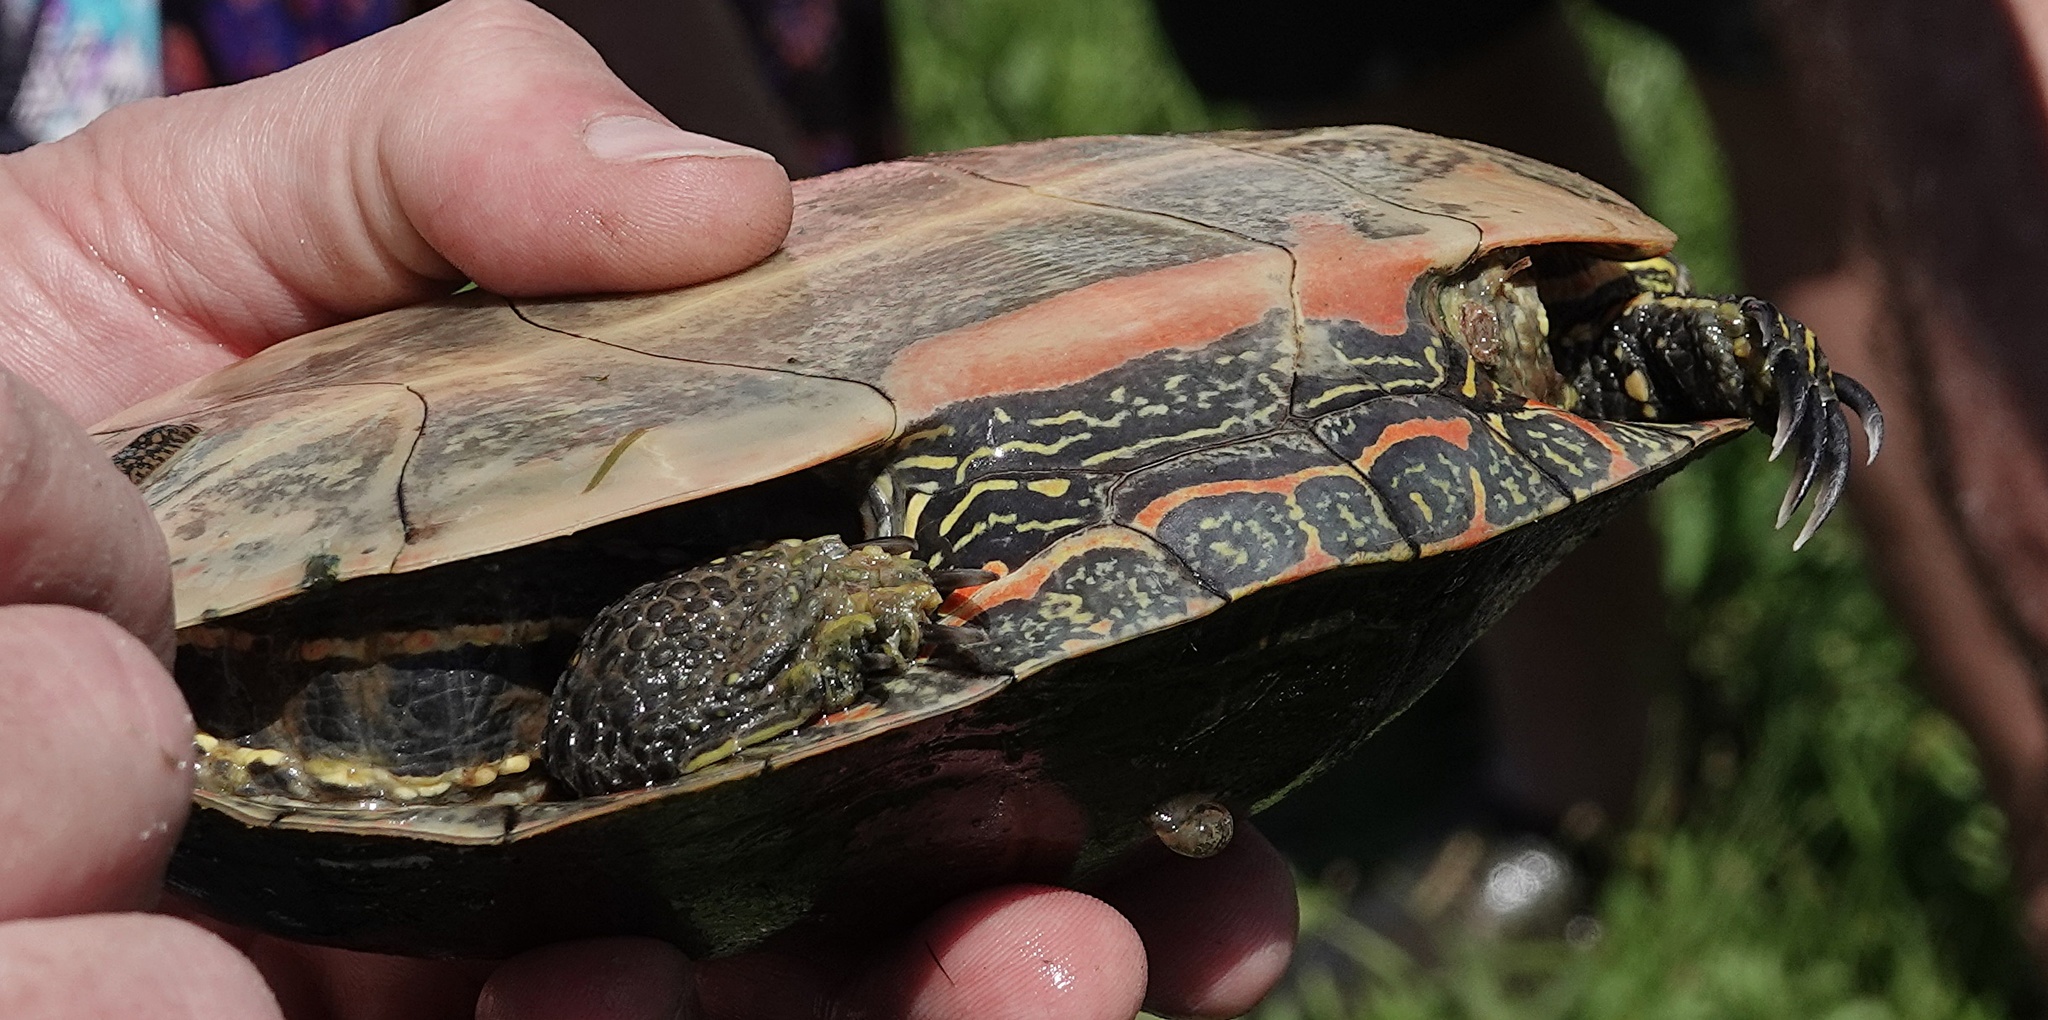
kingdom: Animalia
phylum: Chordata
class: Testudines
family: Emydidae
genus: Chrysemys
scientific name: Chrysemys picta
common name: Painted turtle
